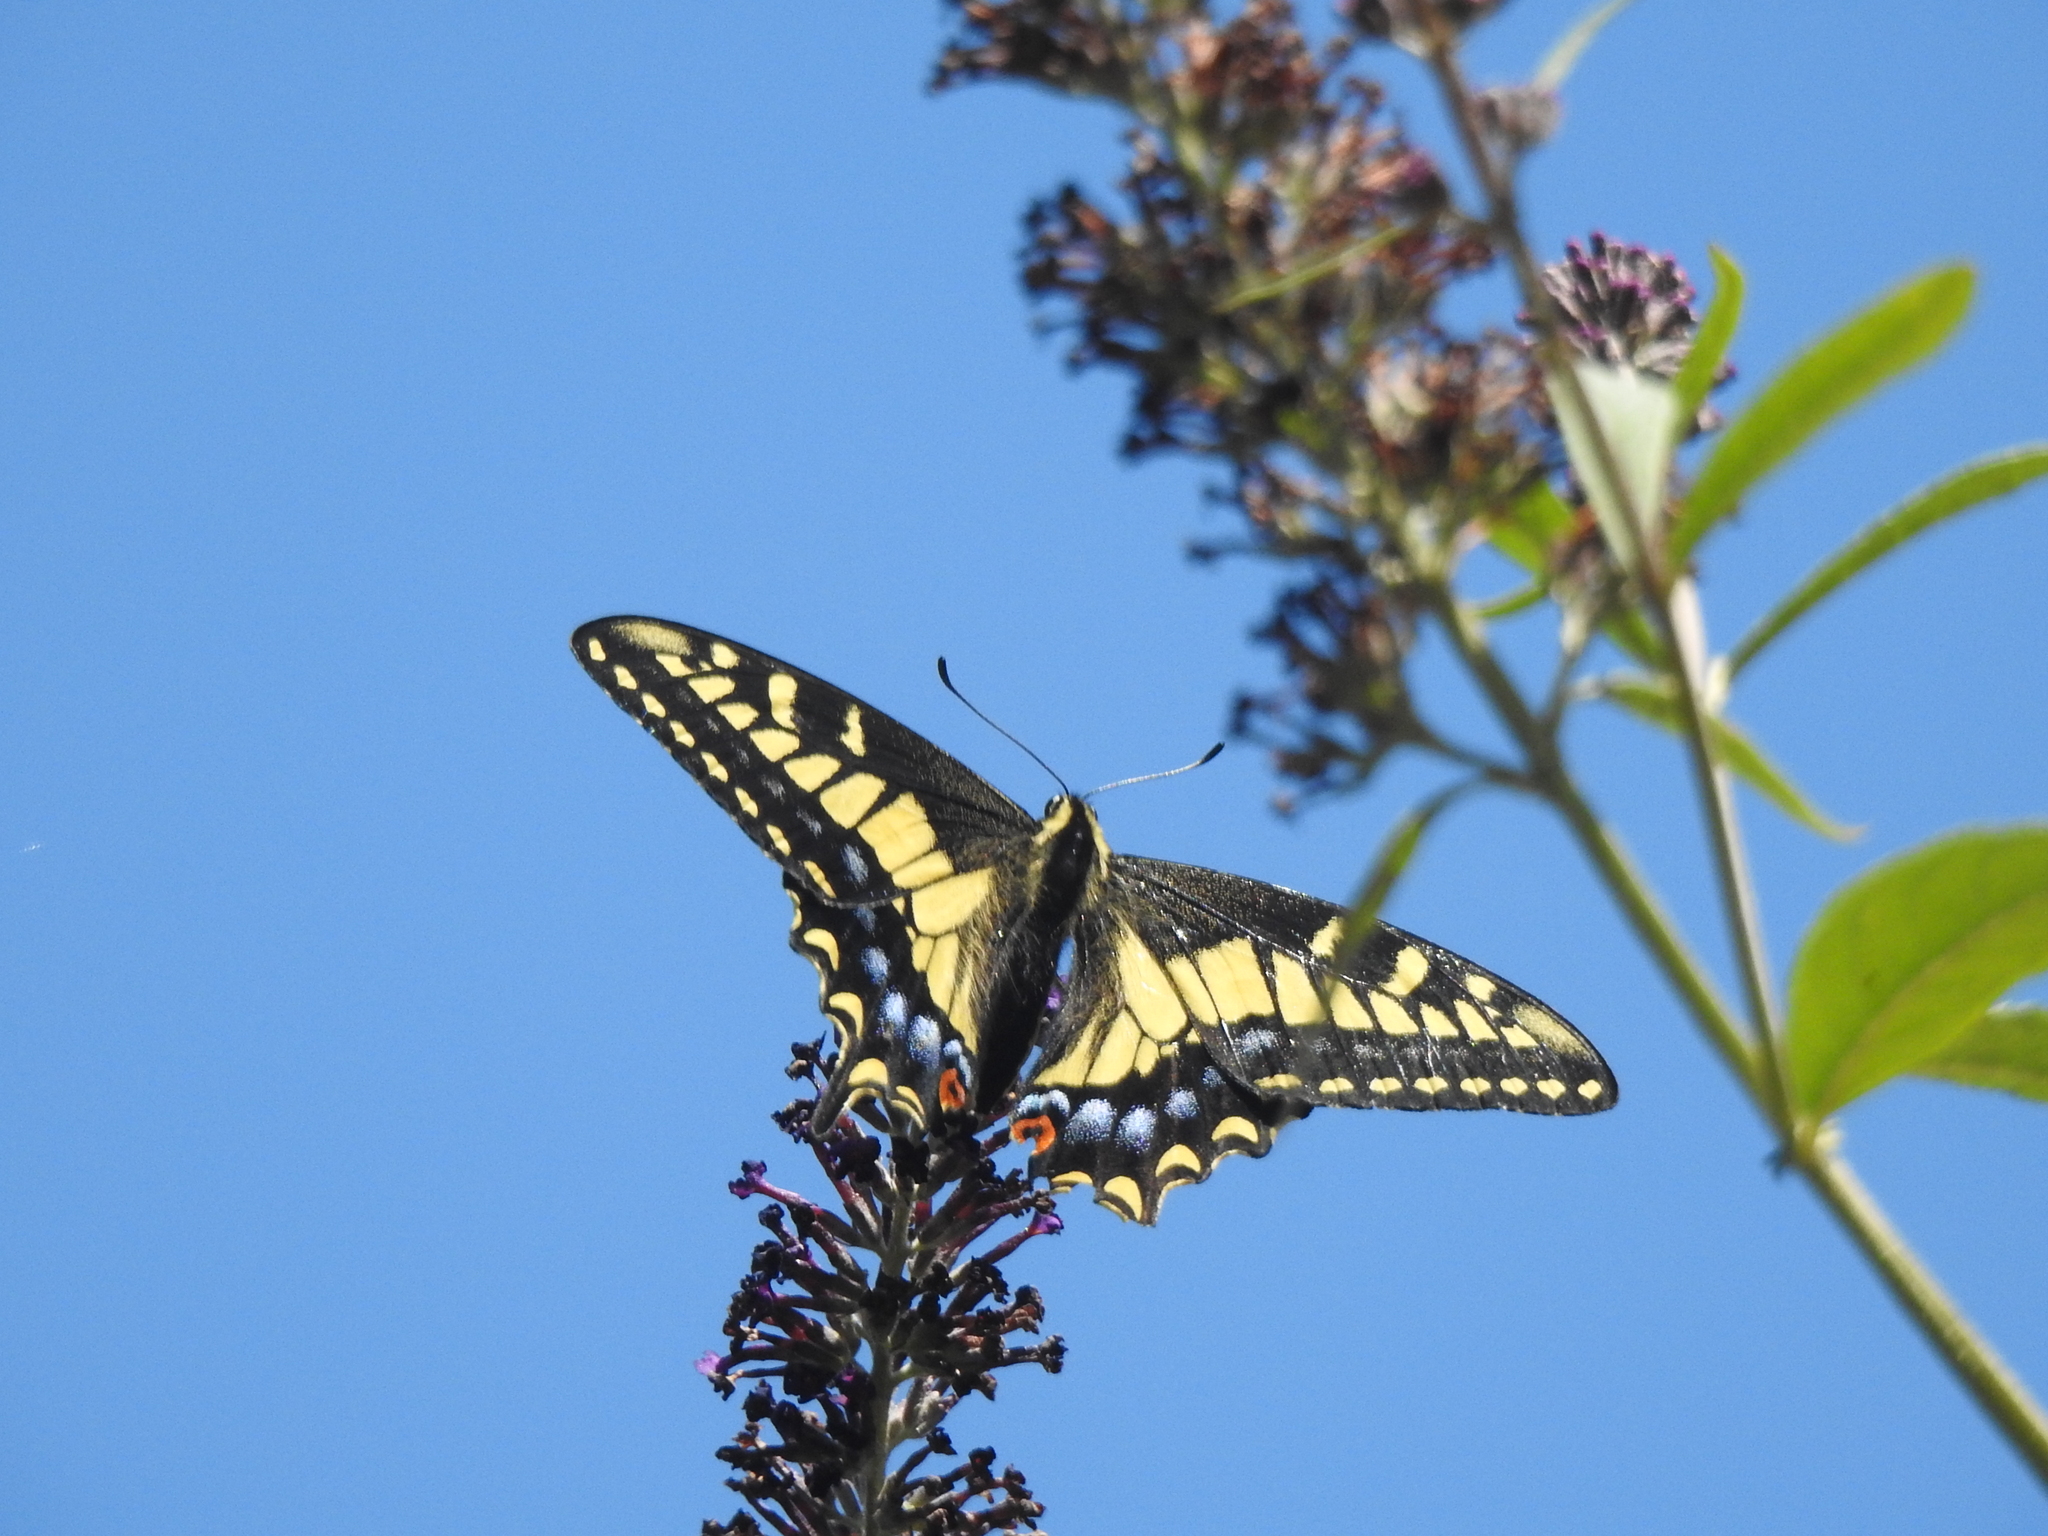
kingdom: Animalia
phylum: Arthropoda
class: Insecta
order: Lepidoptera
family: Papilionidae
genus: Papilio
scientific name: Papilio zelicaon
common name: Anise swallowtail
